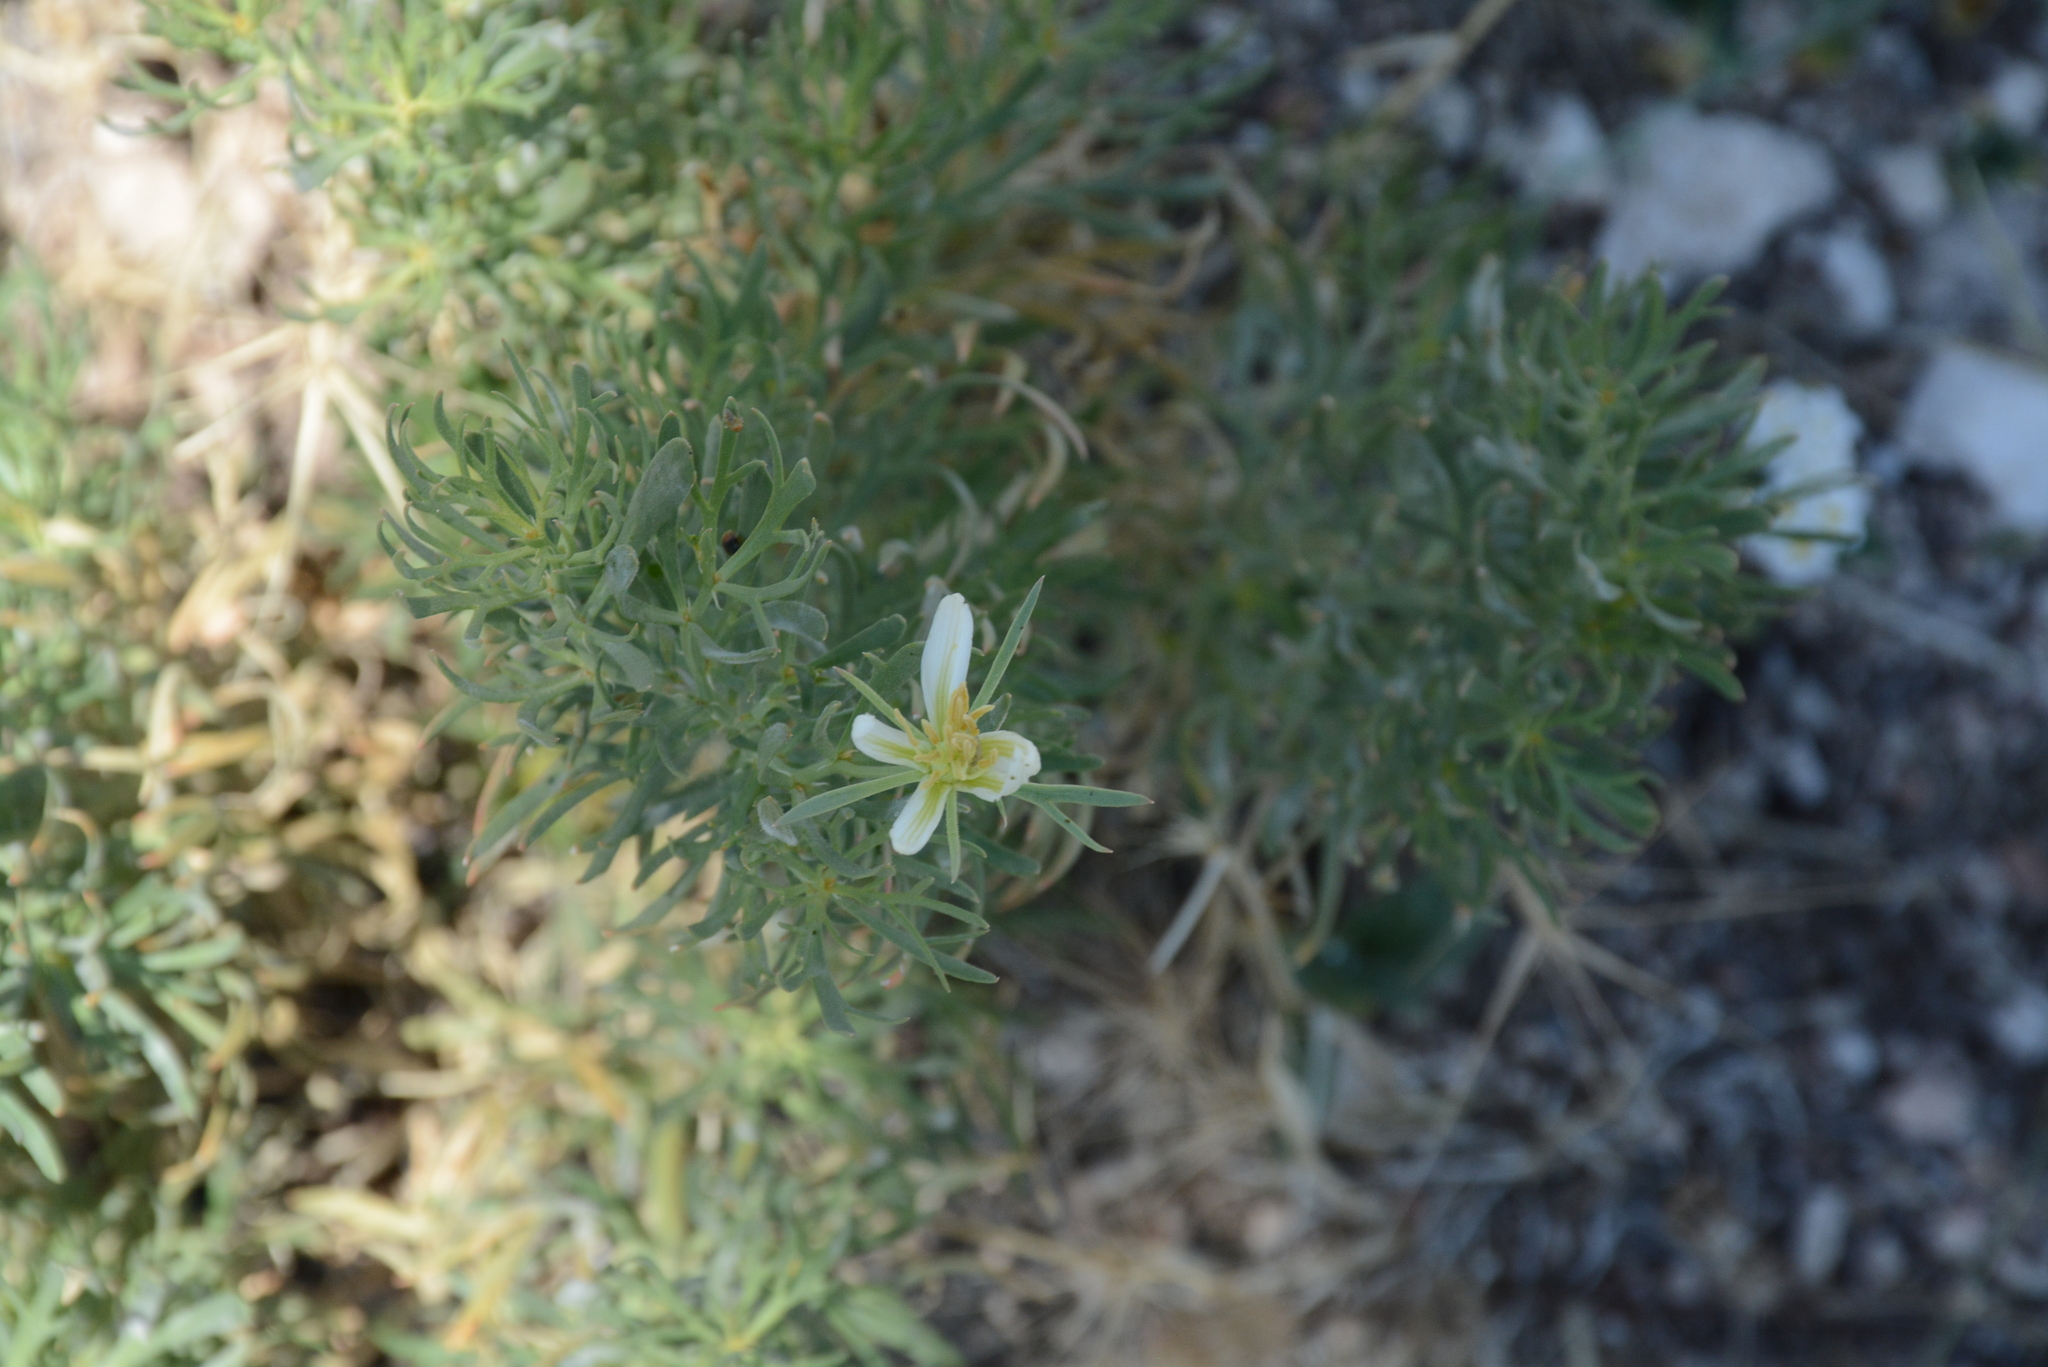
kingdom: Plantae
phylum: Tracheophyta
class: Magnoliopsida
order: Sapindales
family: Tetradiclidaceae
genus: Peganum
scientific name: Peganum harmala
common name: Harmal peganum
